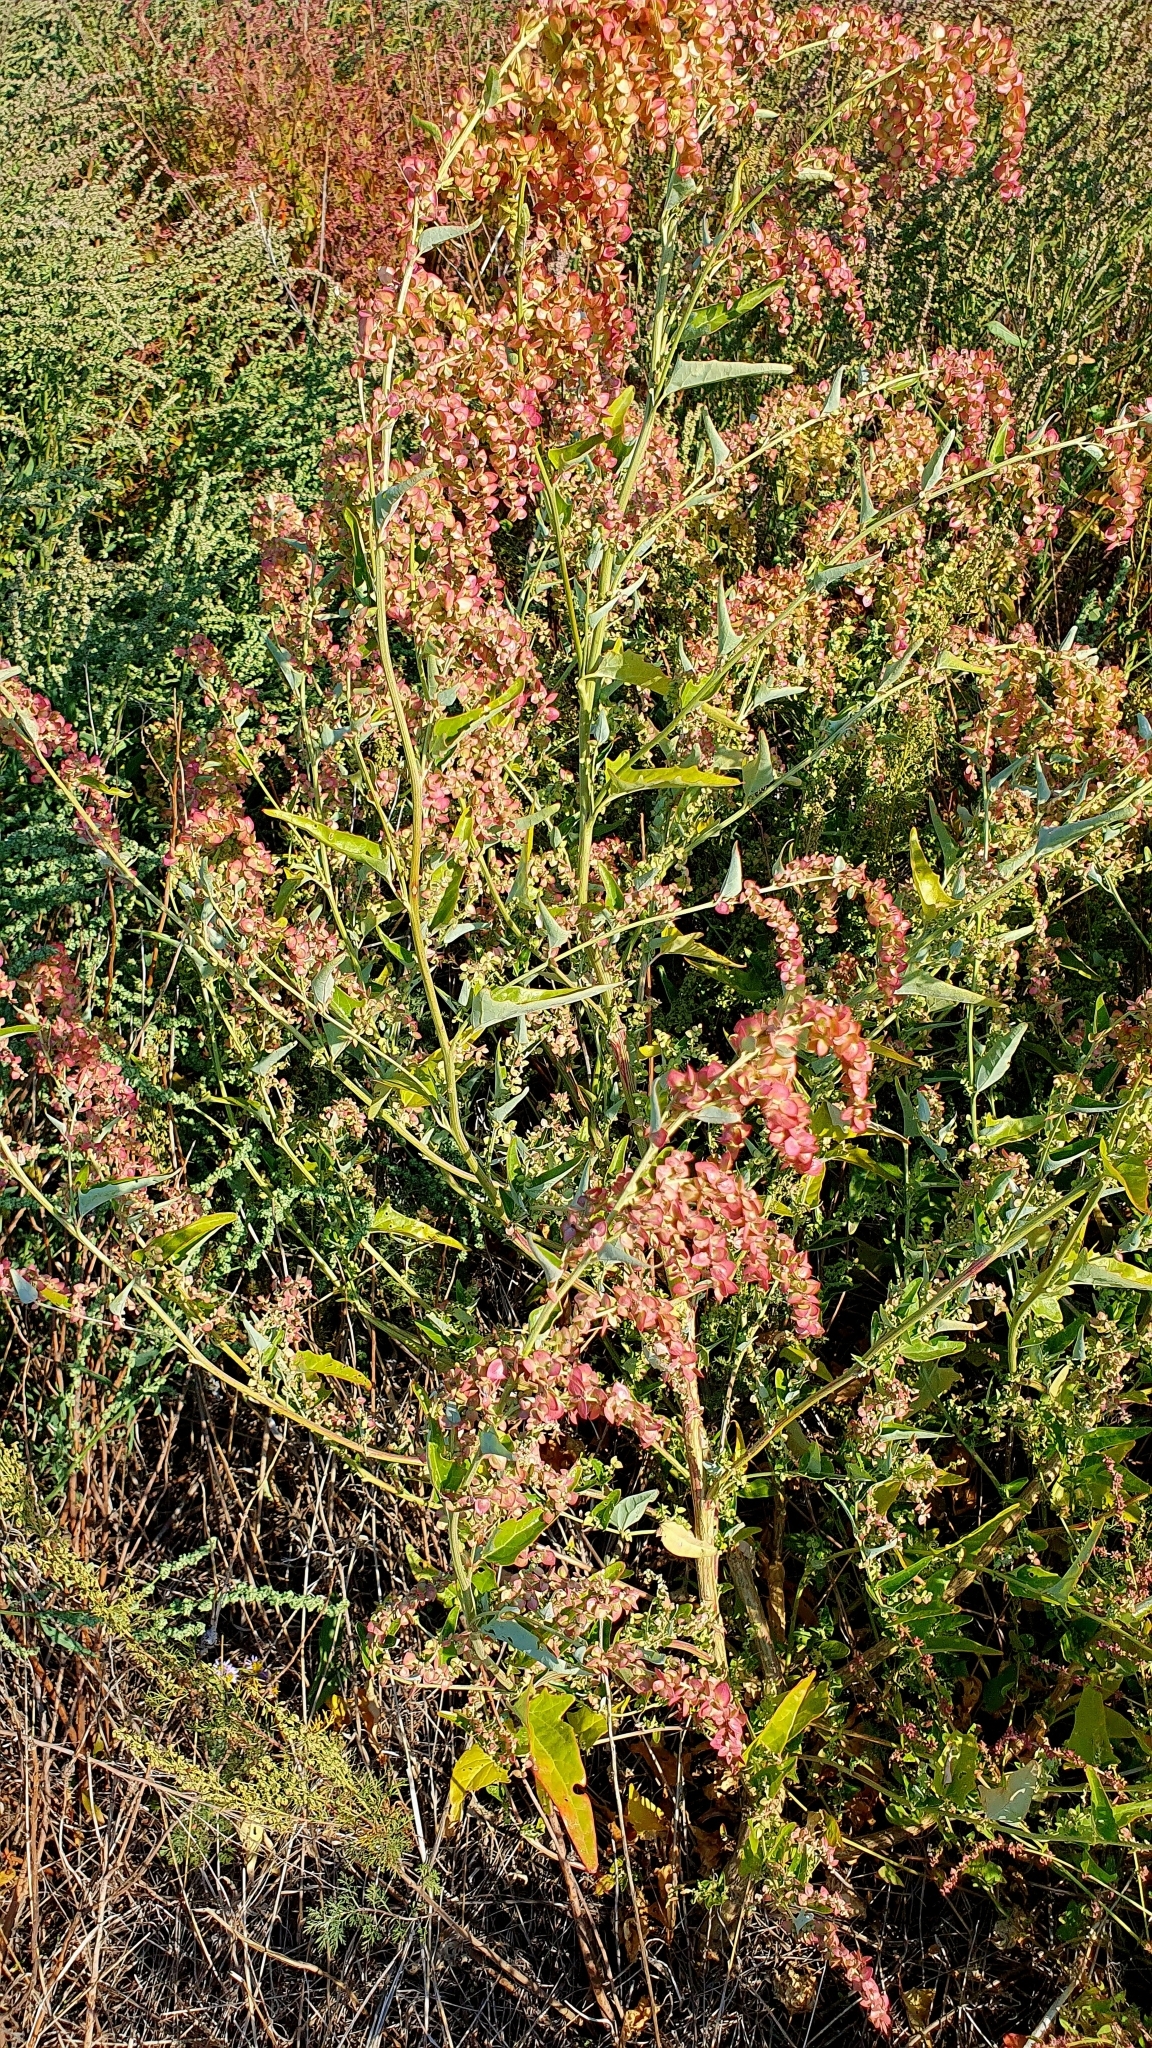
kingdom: Plantae
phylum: Tracheophyta
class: Magnoliopsida
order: Caryophyllales
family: Amaranthaceae
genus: Atriplex
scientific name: Atriplex sagittata
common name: Purple orache
